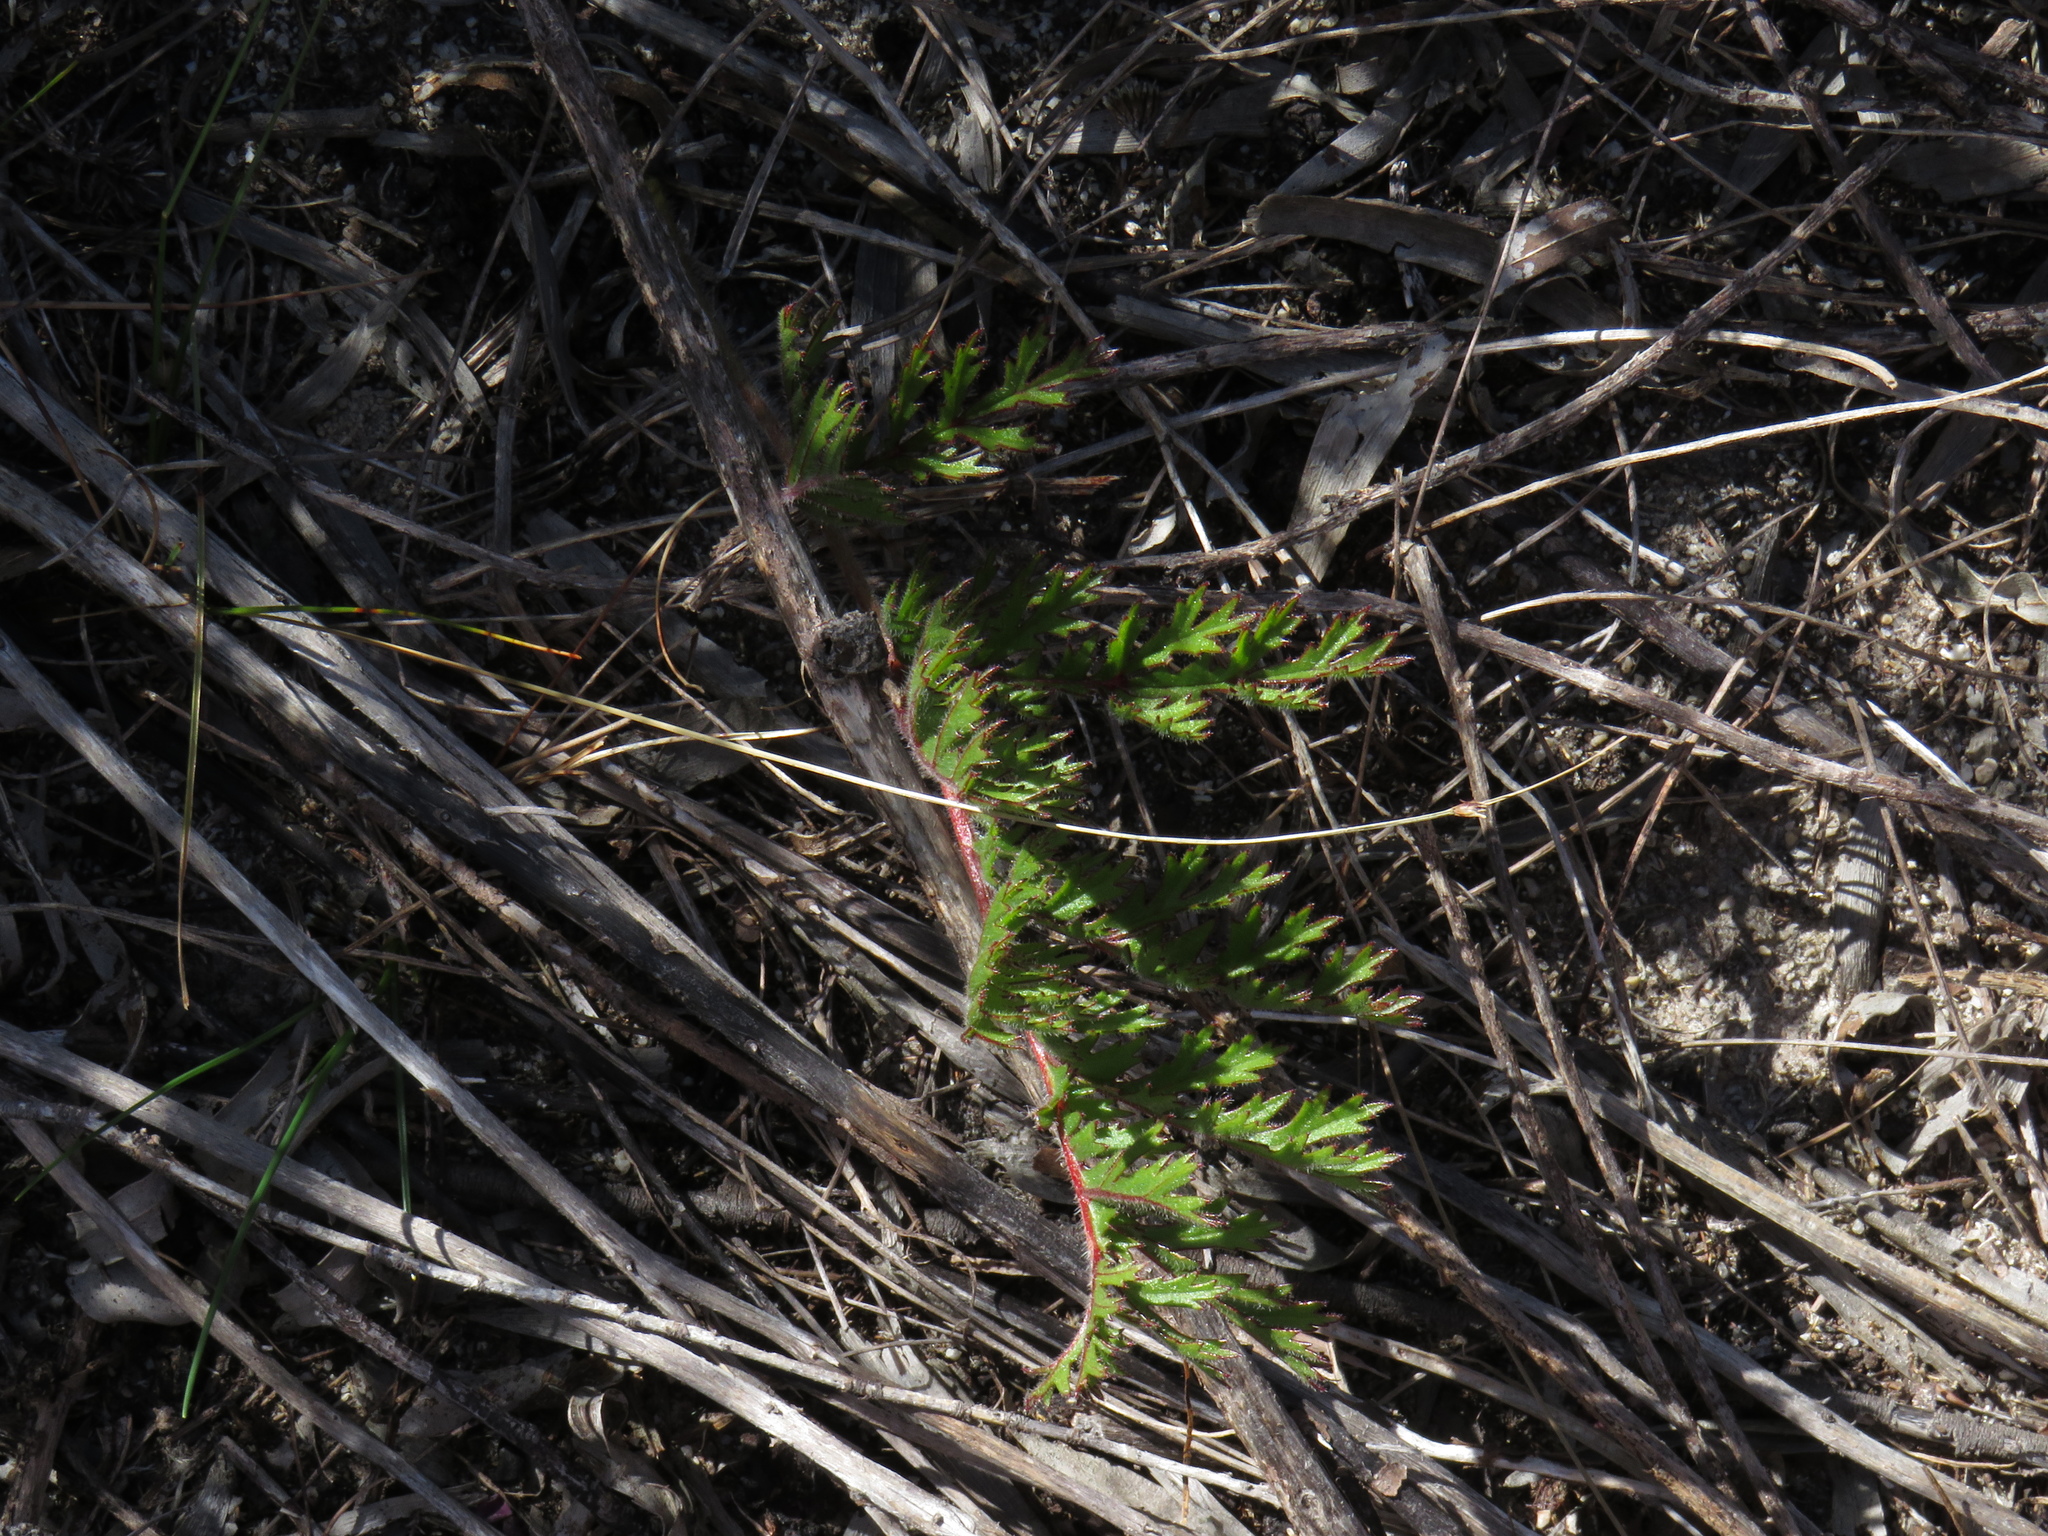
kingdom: Plantae
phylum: Tracheophyta
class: Magnoliopsida
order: Geraniales
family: Geraniaceae
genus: Pelargonium
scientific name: Pelargonium triste
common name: Night-scent pelargonium
